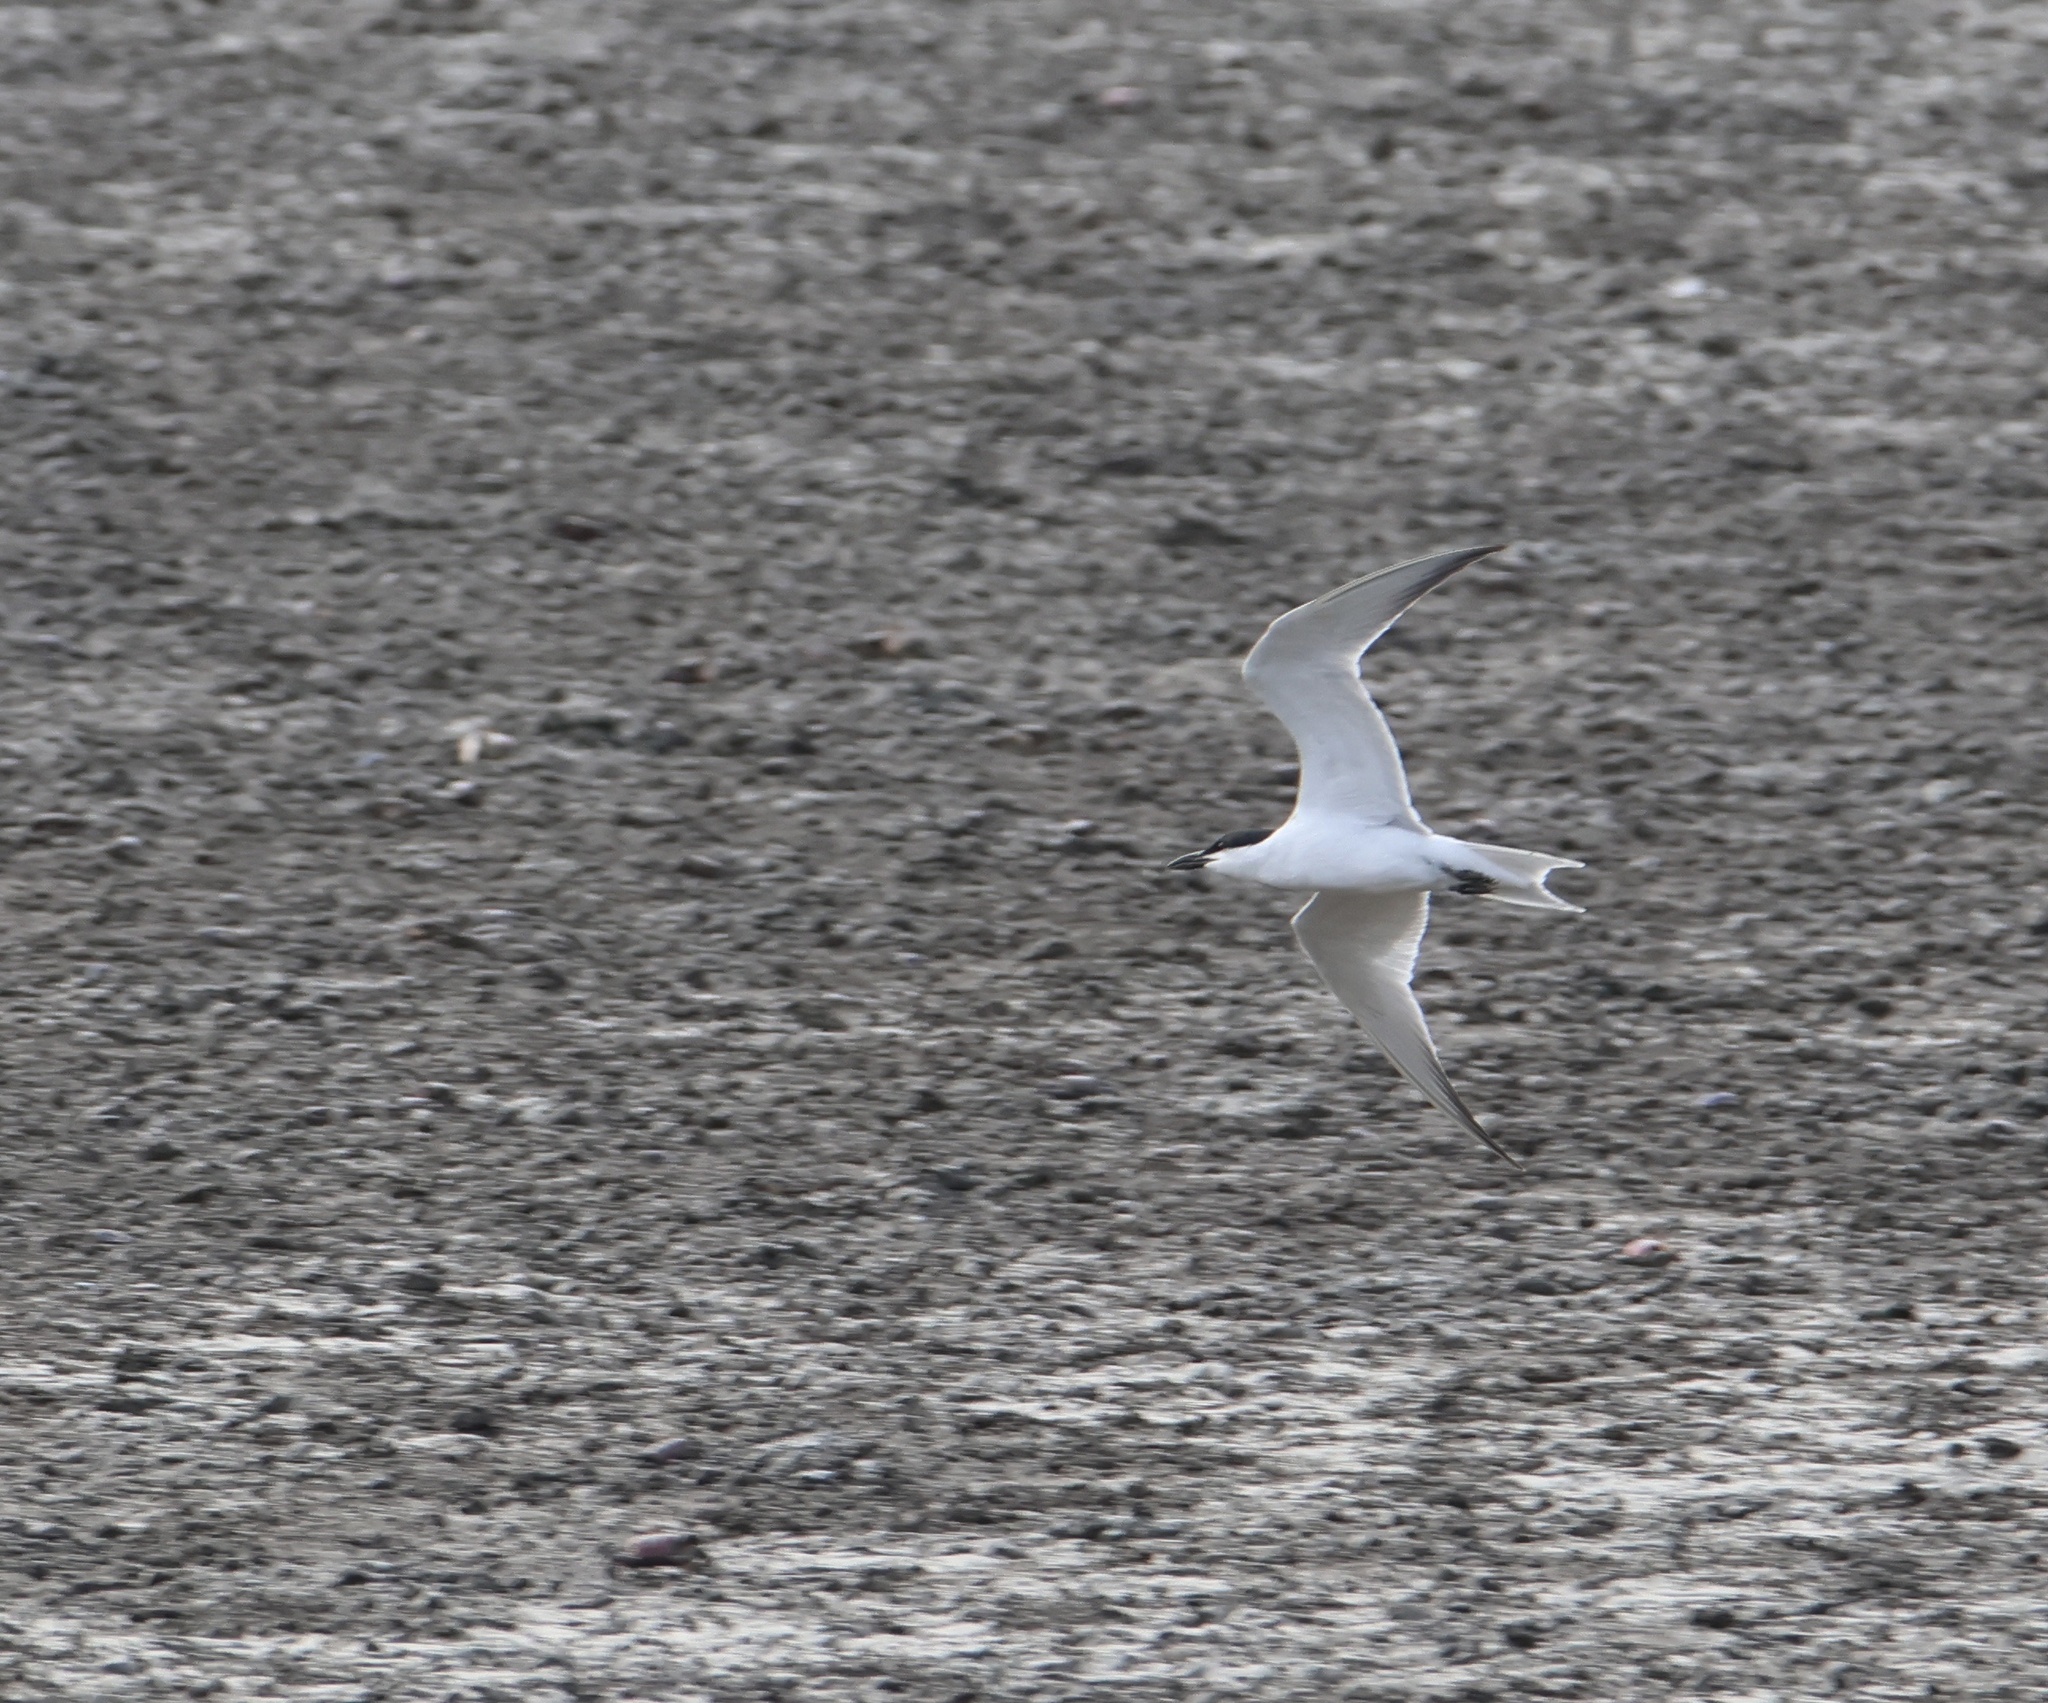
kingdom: Animalia
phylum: Chordata
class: Aves
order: Charadriiformes
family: Laridae
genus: Gelochelidon
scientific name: Gelochelidon nilotica
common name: Gull-billed tern
